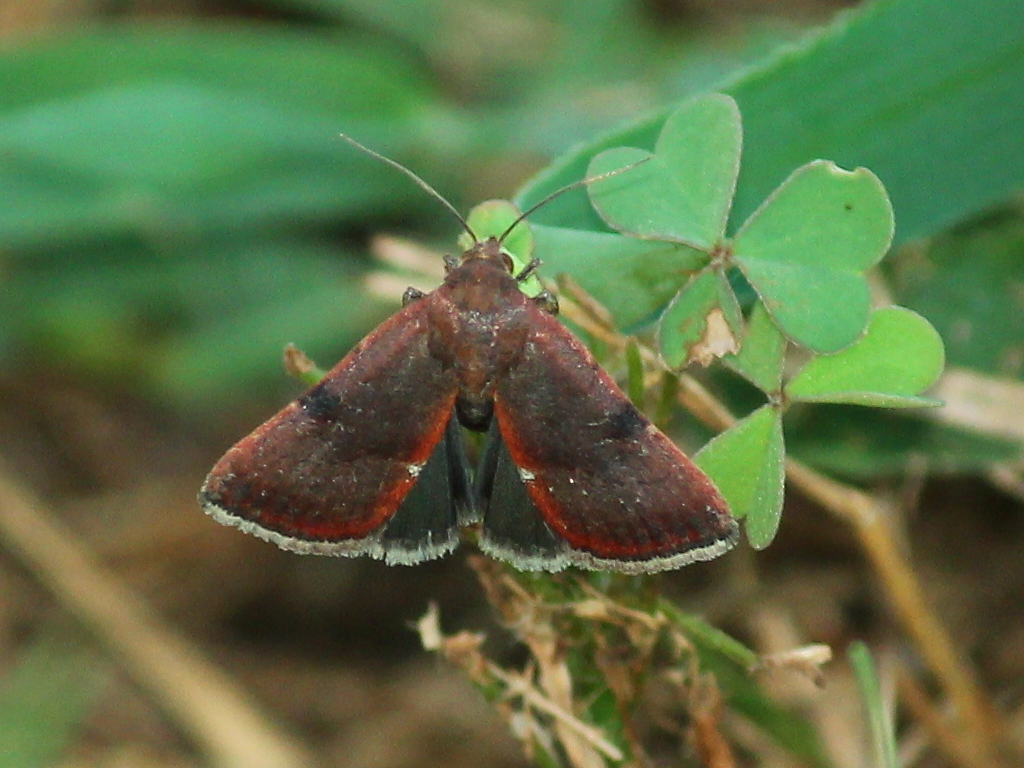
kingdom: Animalia
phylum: Arthropoda
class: Insecta
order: Lepidoptera
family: Noctuidae
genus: Galgula
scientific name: Galgula partita
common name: Wedgeling
